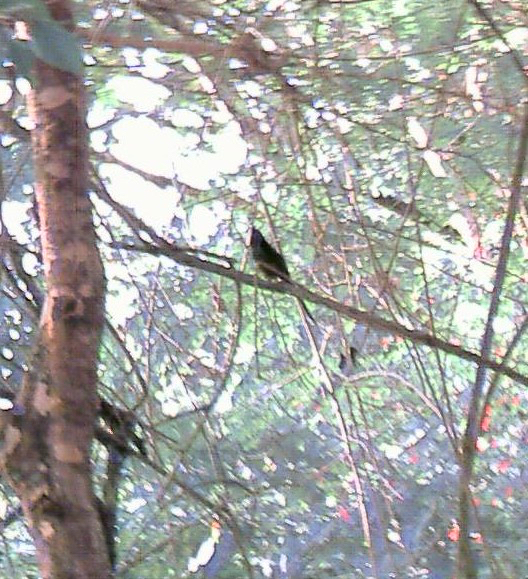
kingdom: Animalia
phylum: Chordata
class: Aves
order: Passeriformes
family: Dicruridae
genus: Dicrurus
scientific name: Dicrurus paradiseus
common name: Greater racket-tailed drongo
